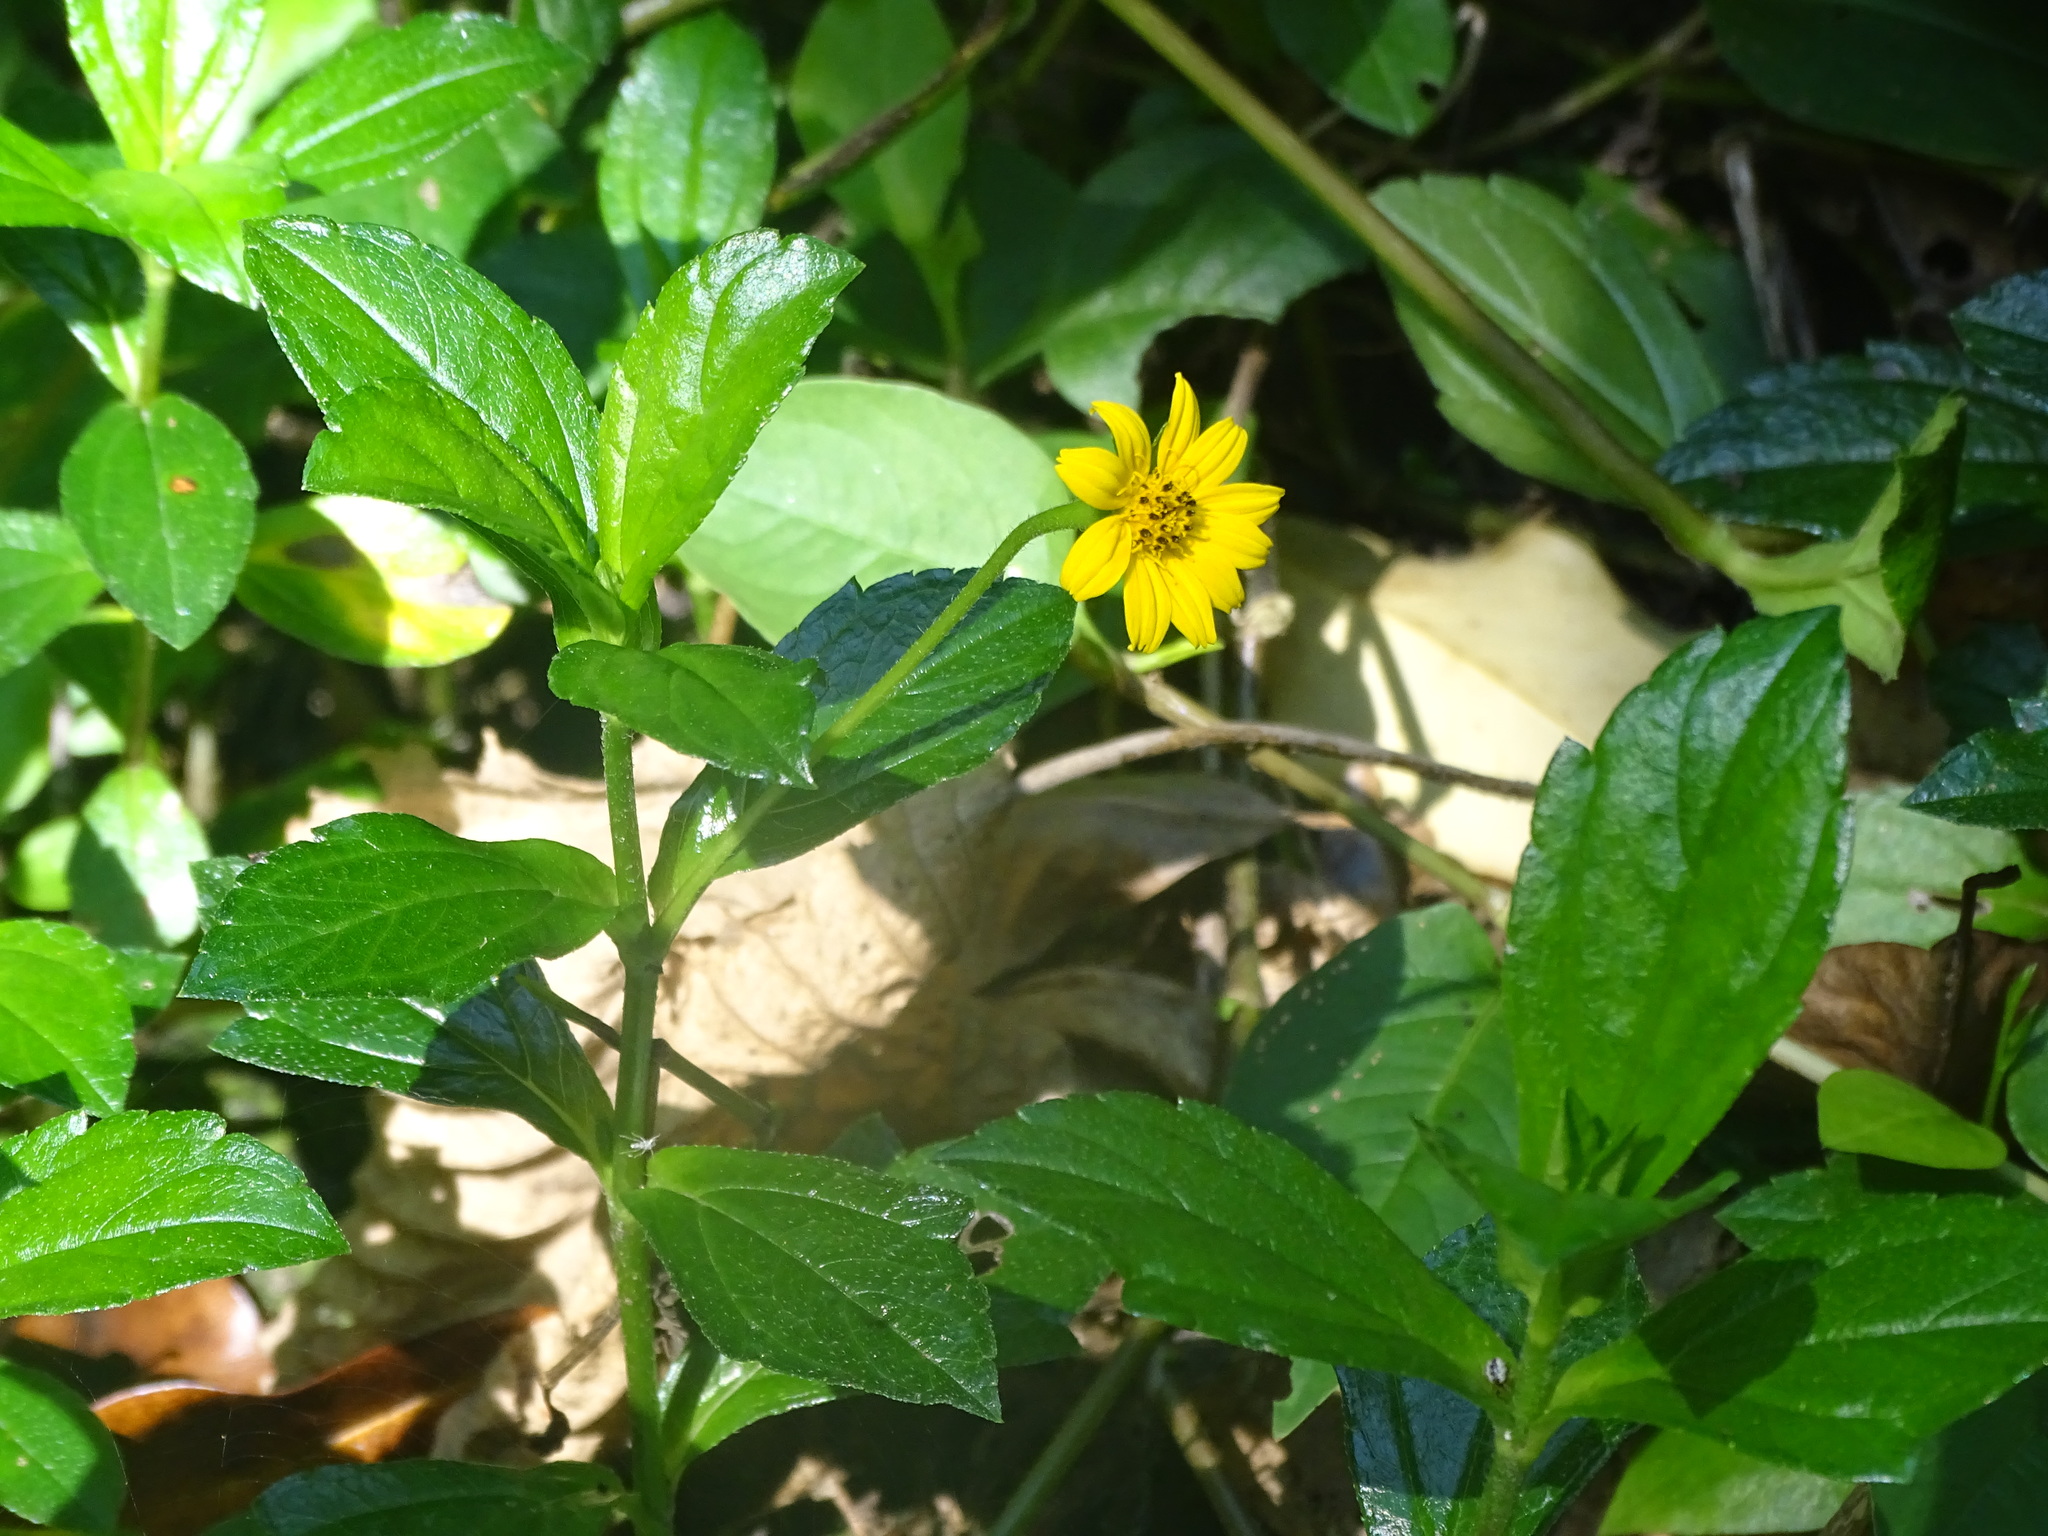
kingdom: Plantae
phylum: Tracheophyta
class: Magnoliopsida
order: Asterales
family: Asteraceae
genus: Sphagneticola
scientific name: Sphagneticola trilobata
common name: Bay biscayne creeping-oxeye
